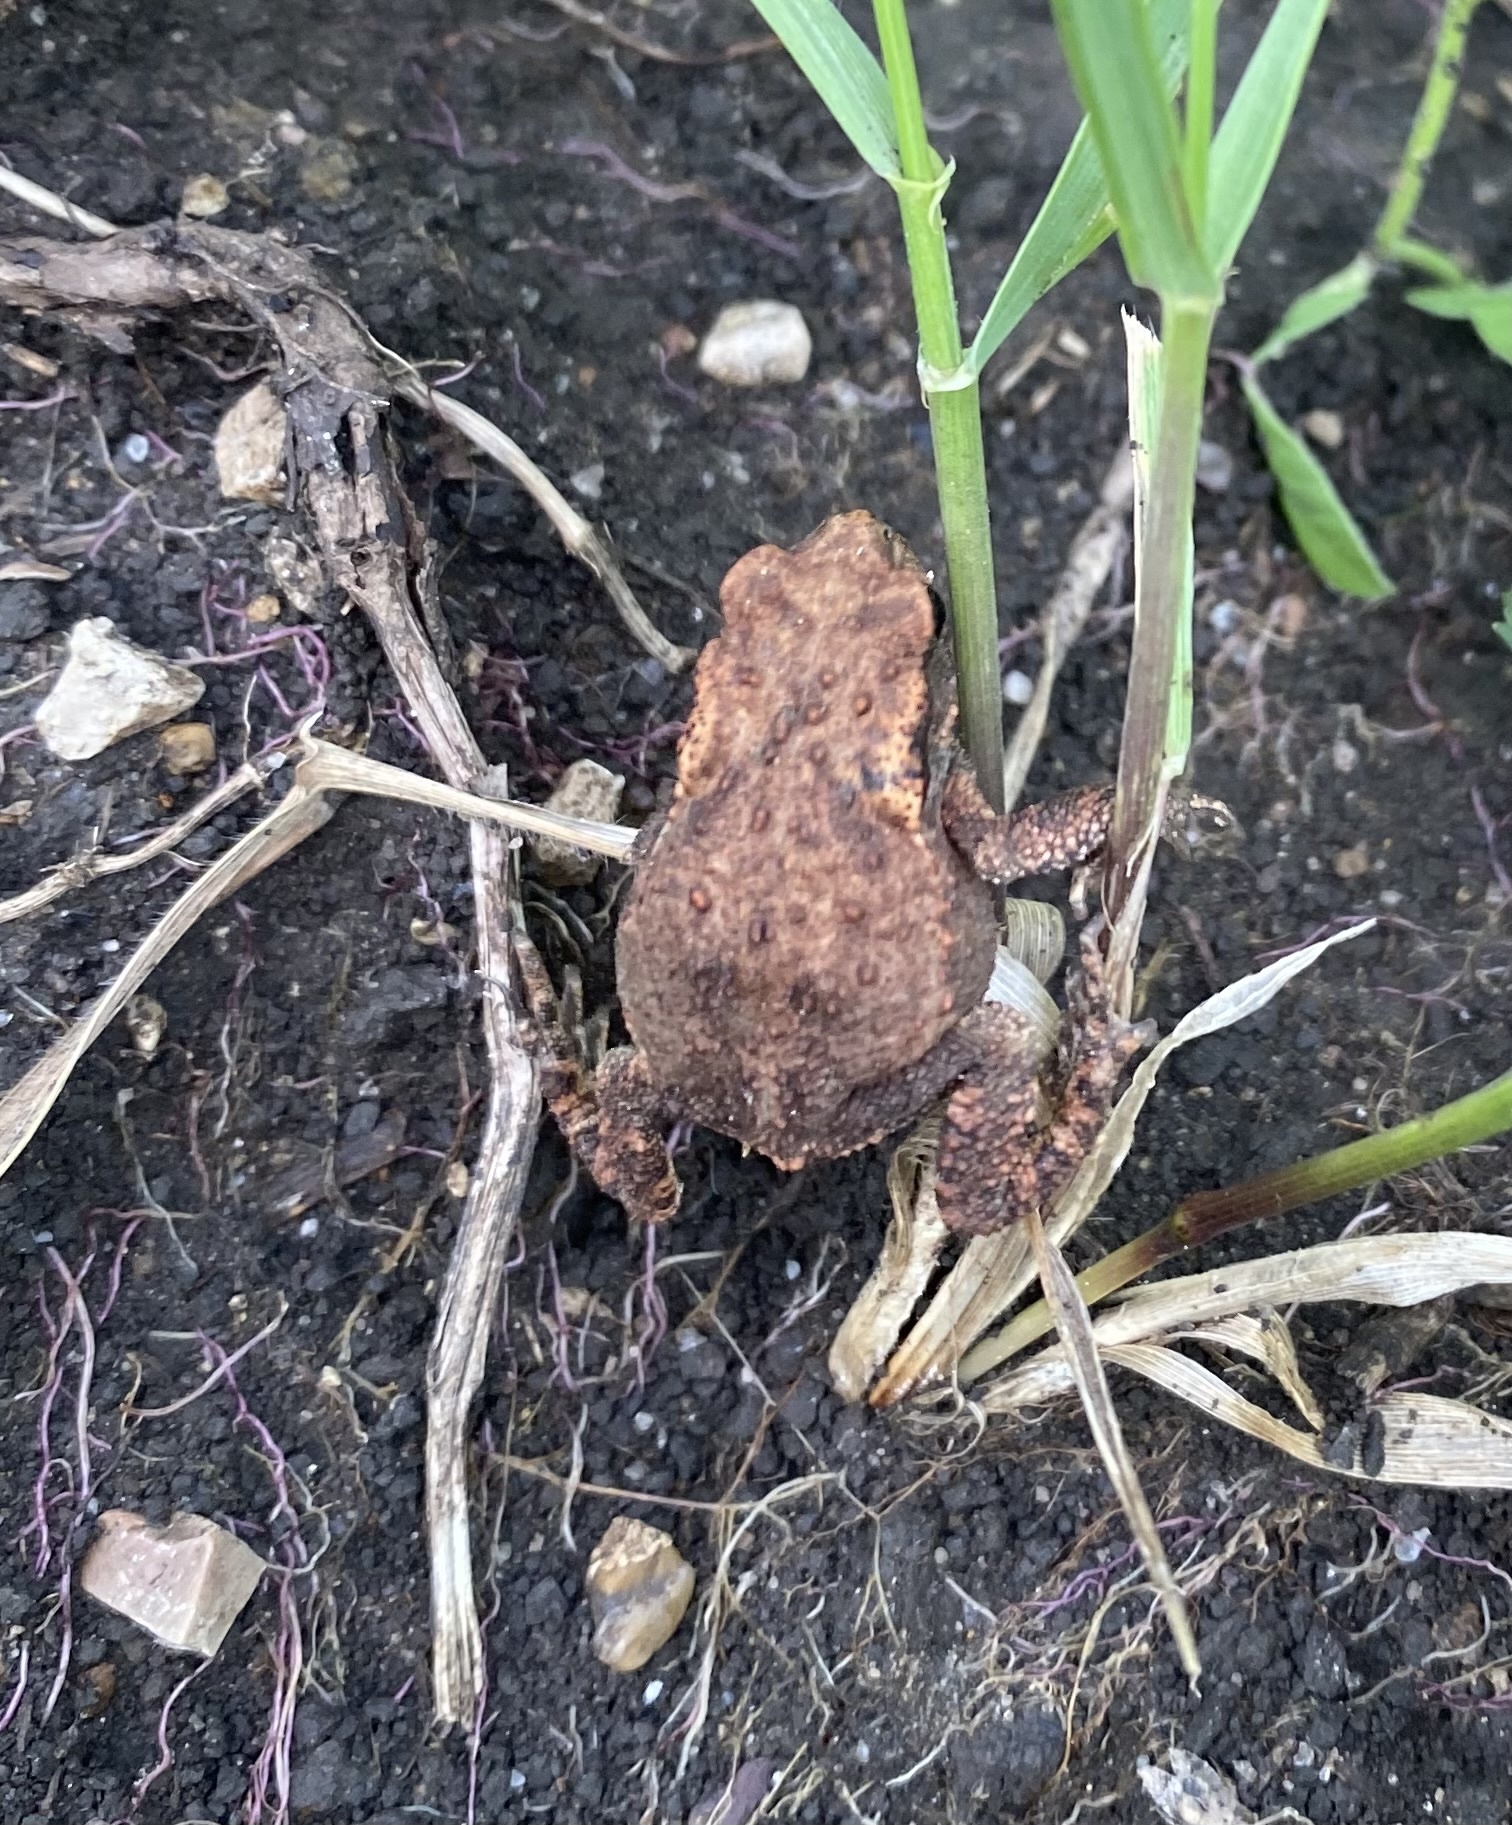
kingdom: Animalia
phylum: Chordata
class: Amphibia
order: Anura
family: Bufonidae
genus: Bufo
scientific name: Bufo verrucosissimus
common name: Caucasian toad
